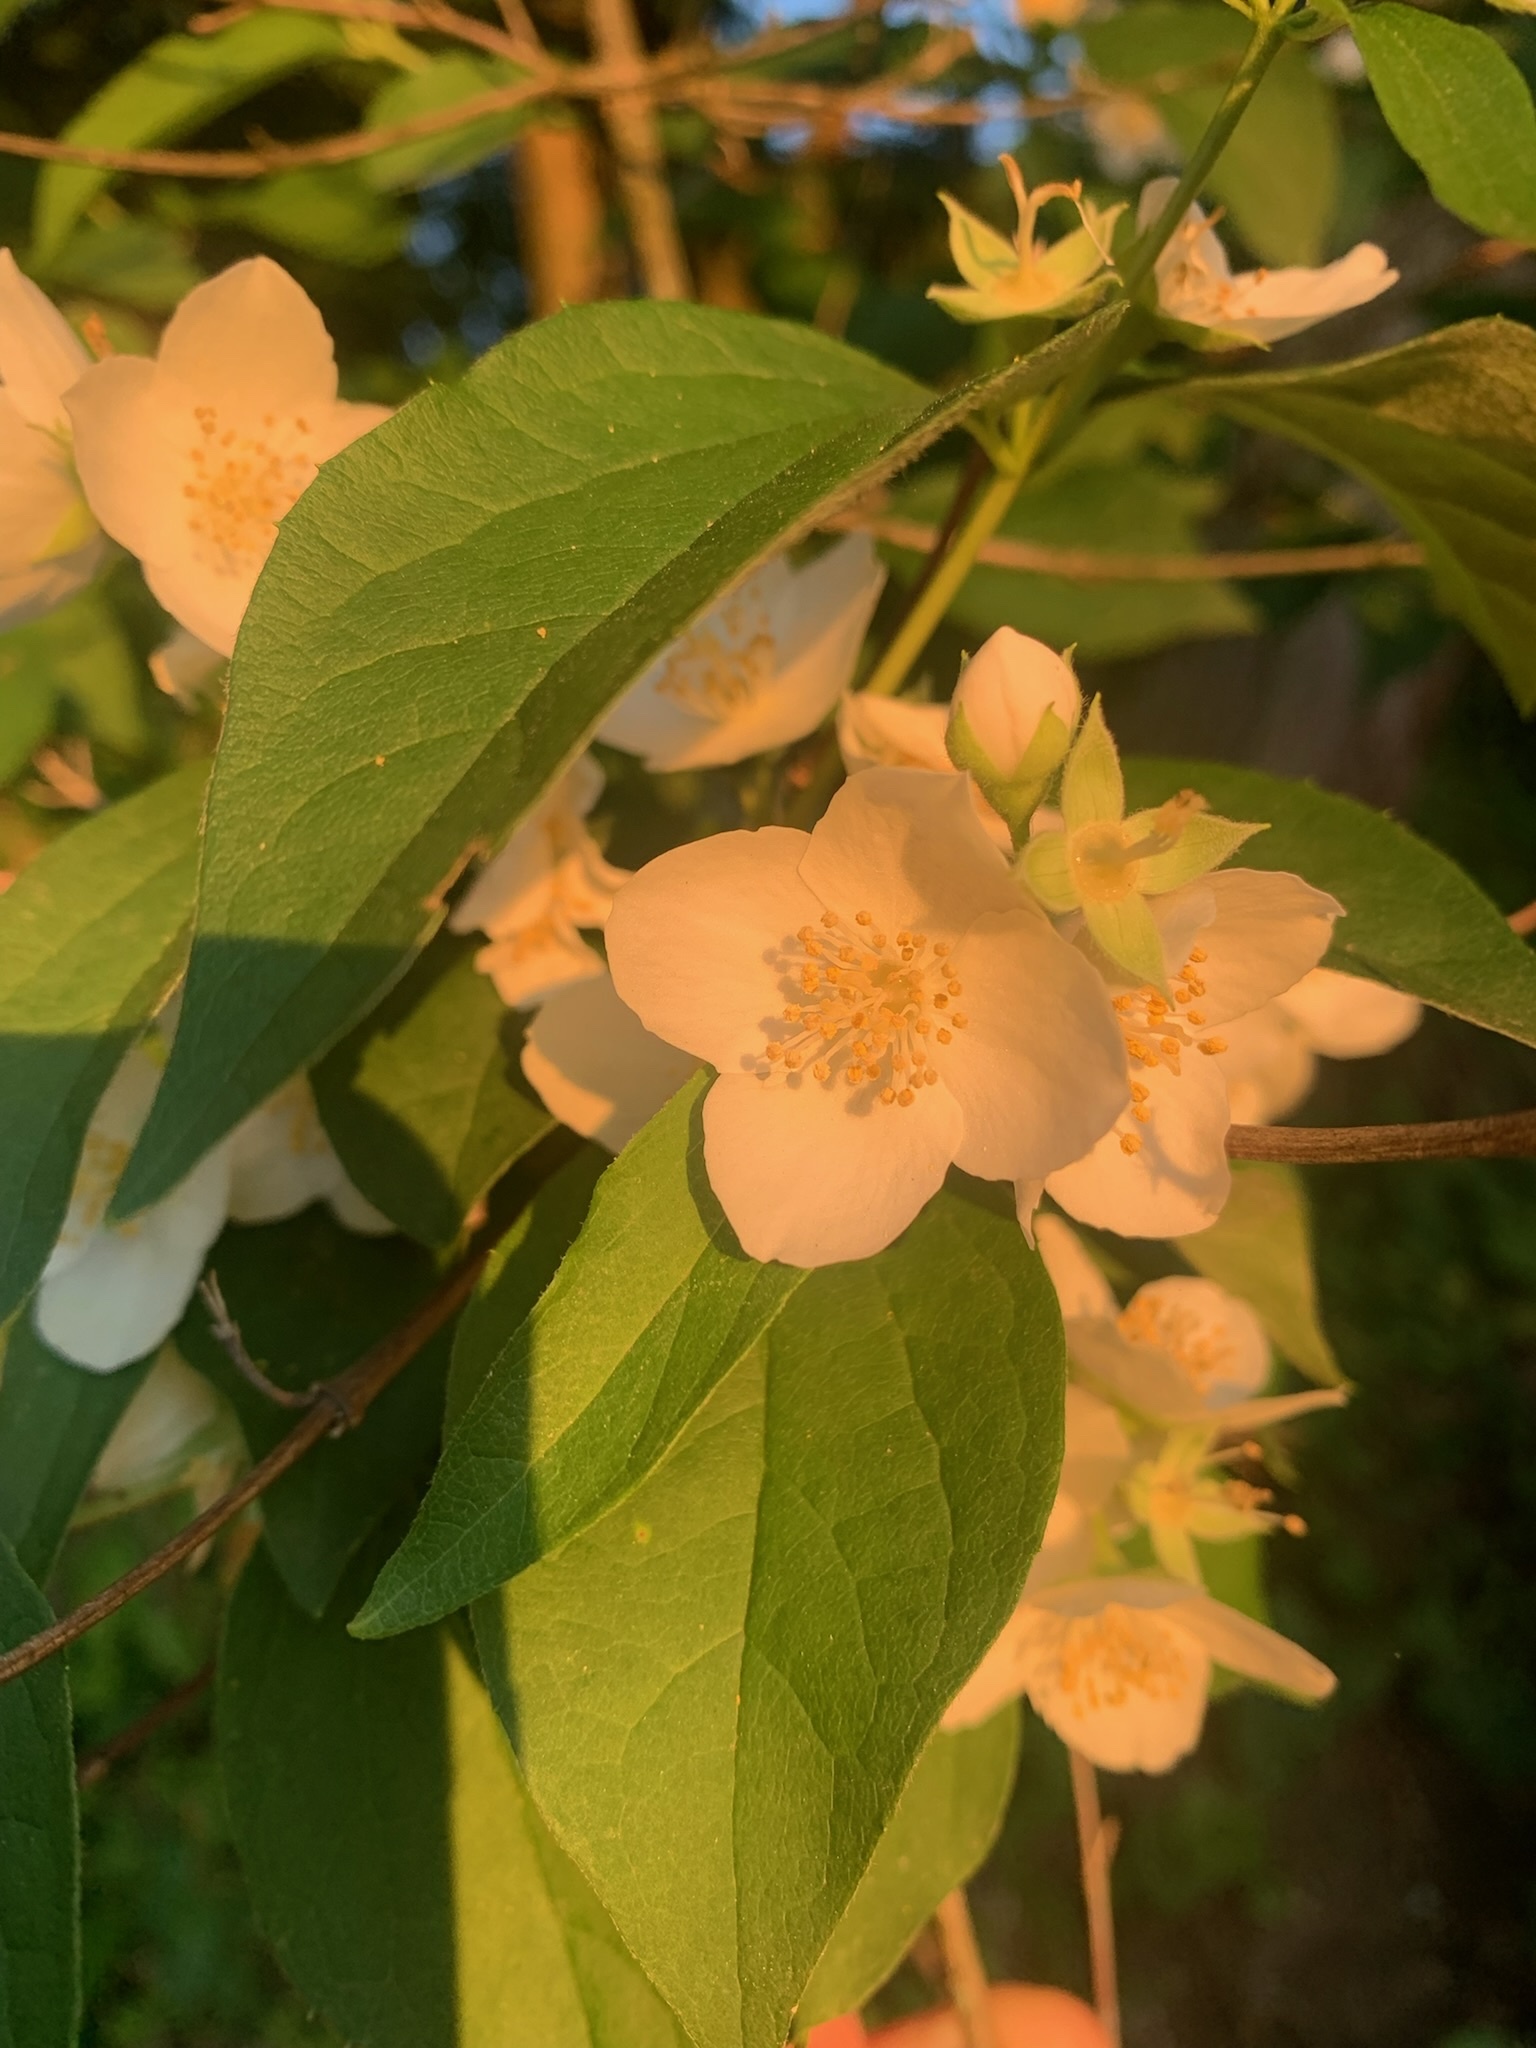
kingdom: Plantae
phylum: Tracheophyta
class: Magnoliopsida
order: Cornales
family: Hydrangeaceae
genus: Philadelphus
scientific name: Philadelphus coronarius
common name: Mock orange
